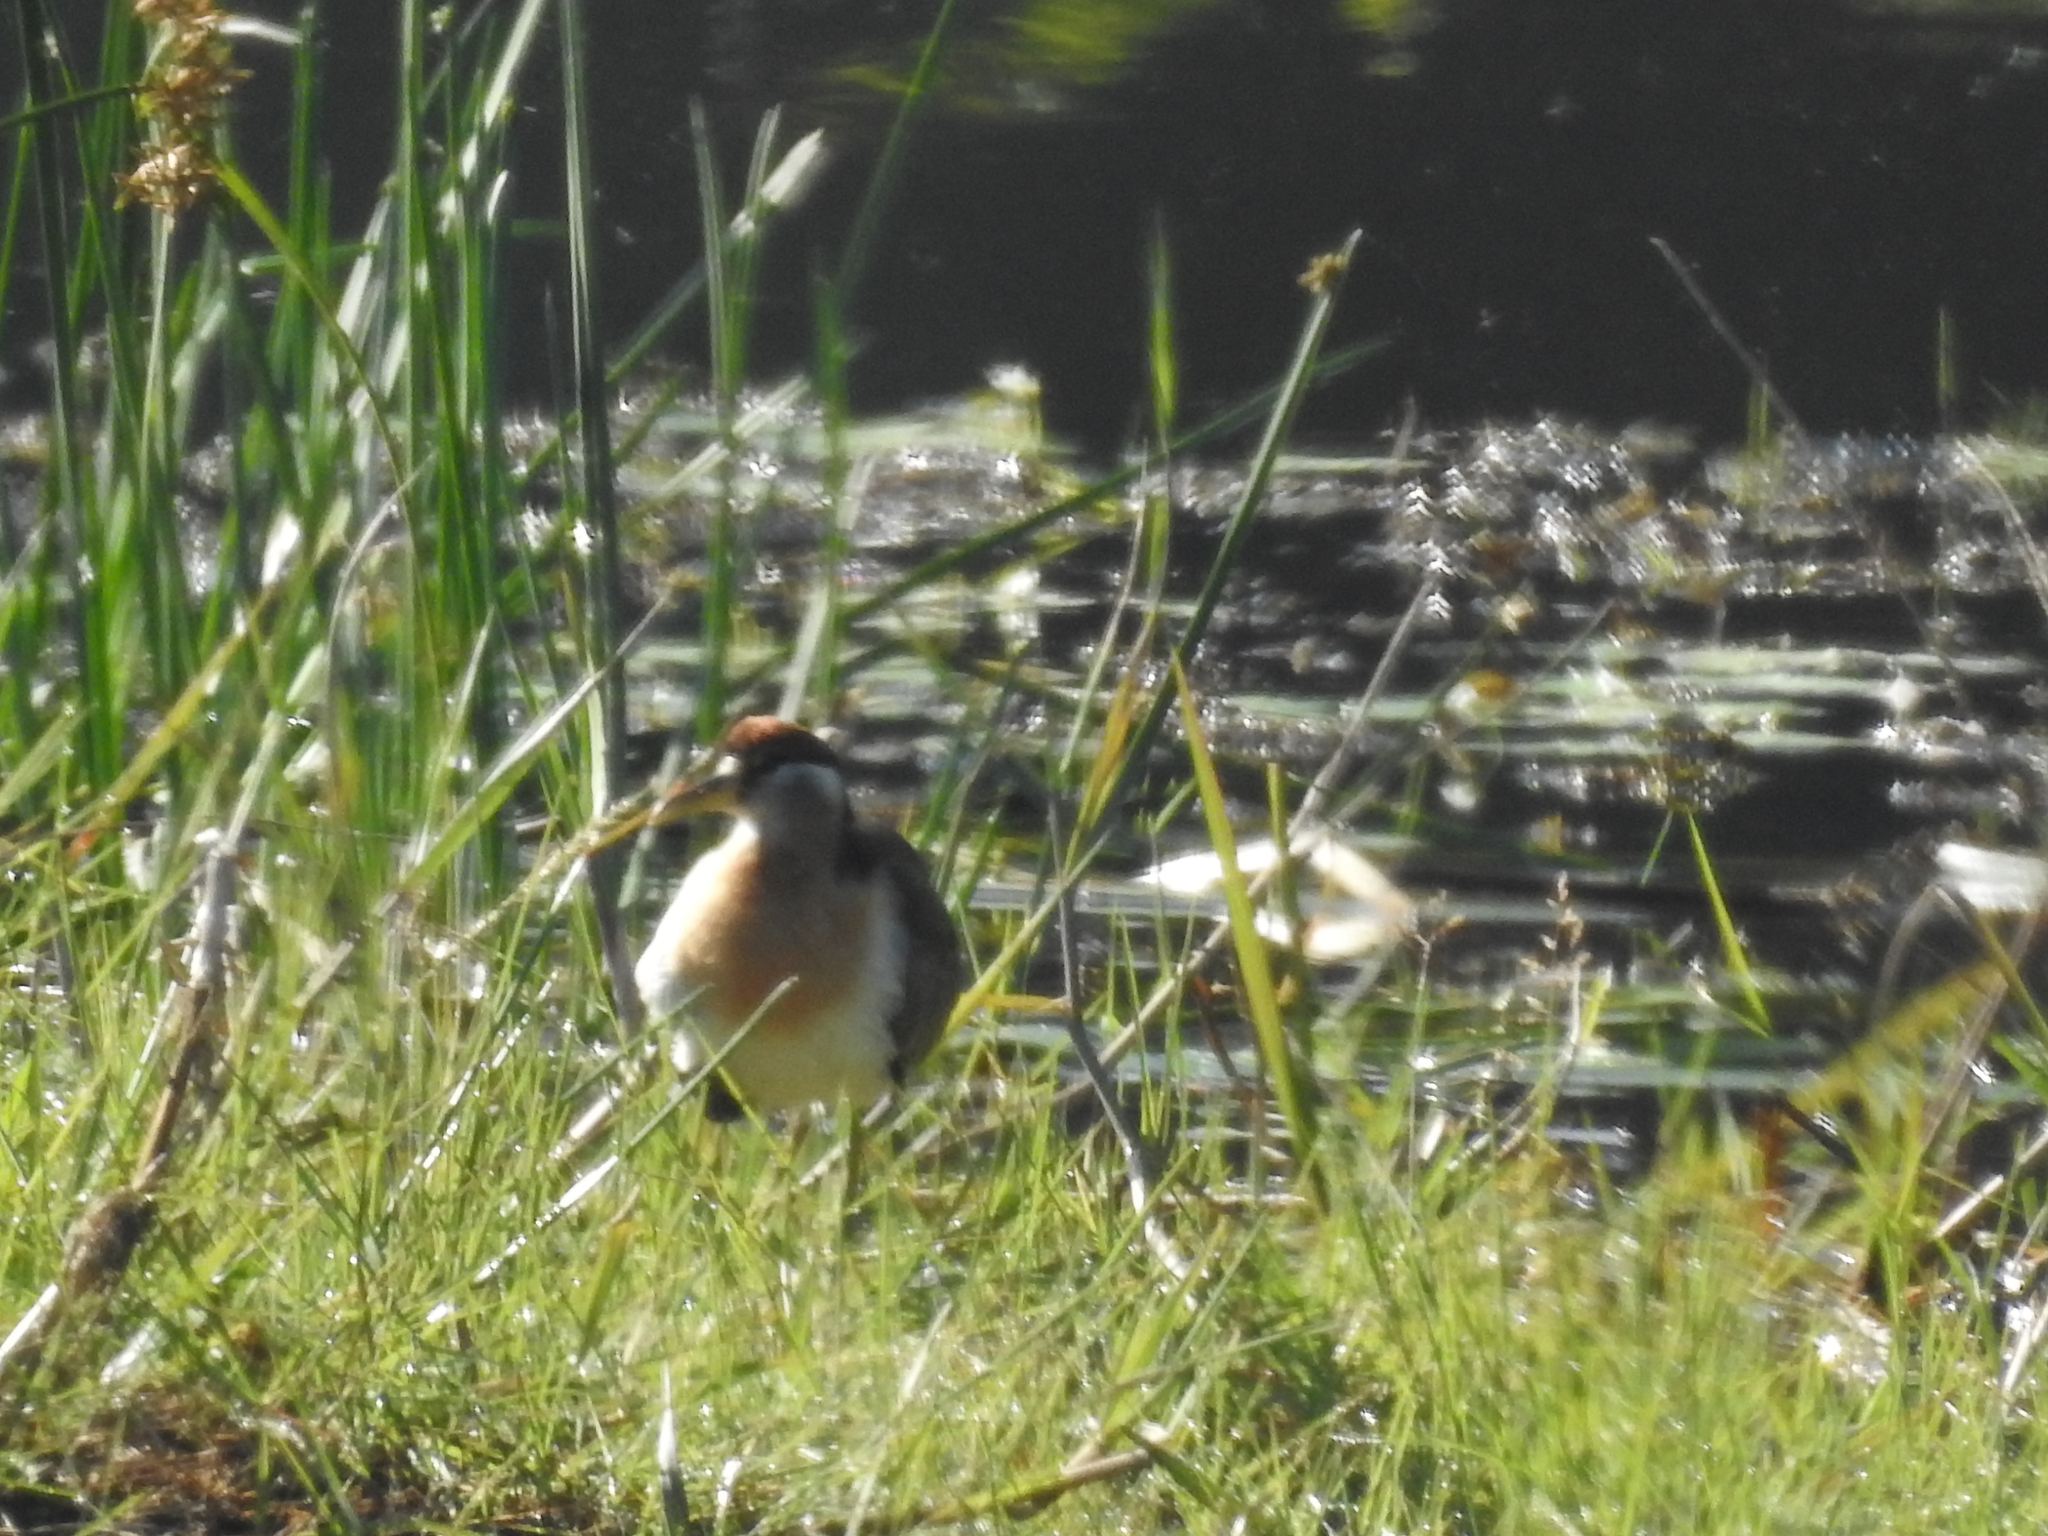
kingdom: Animalia
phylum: Chordata
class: Aves
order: Charadriiformes
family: Jacanidae
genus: Metopidius
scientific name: Metopidius indicus
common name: Bronze-winged jacana
